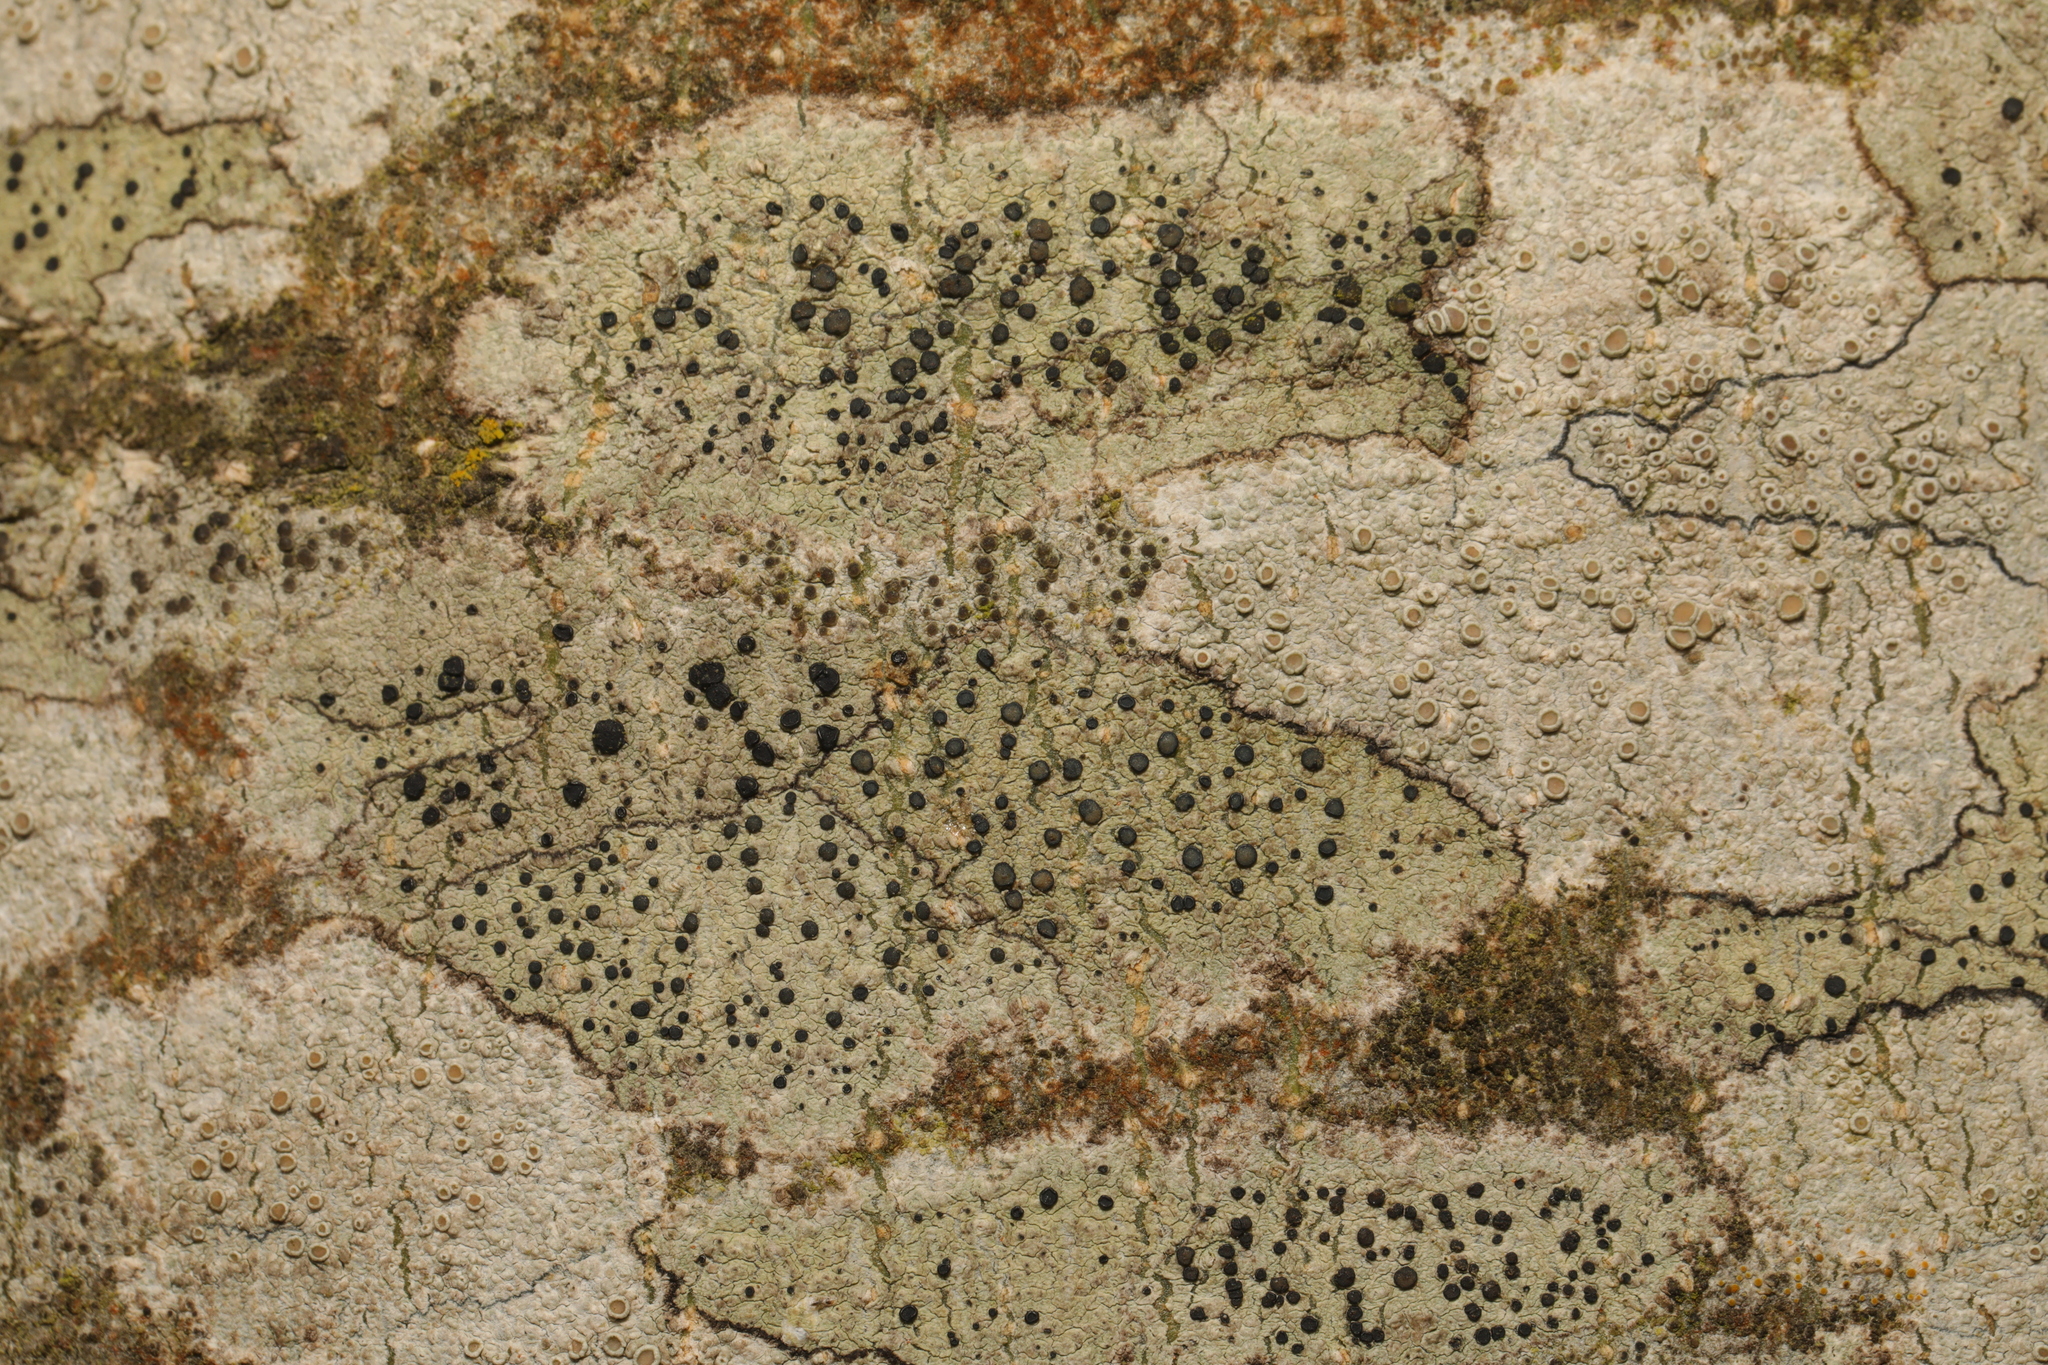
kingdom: Fungi
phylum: Ascomycota
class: Lecanoromycetes
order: Lecanorales
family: Lecanoraceae
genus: Lecidella
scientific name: Lecidella elaeochroma
